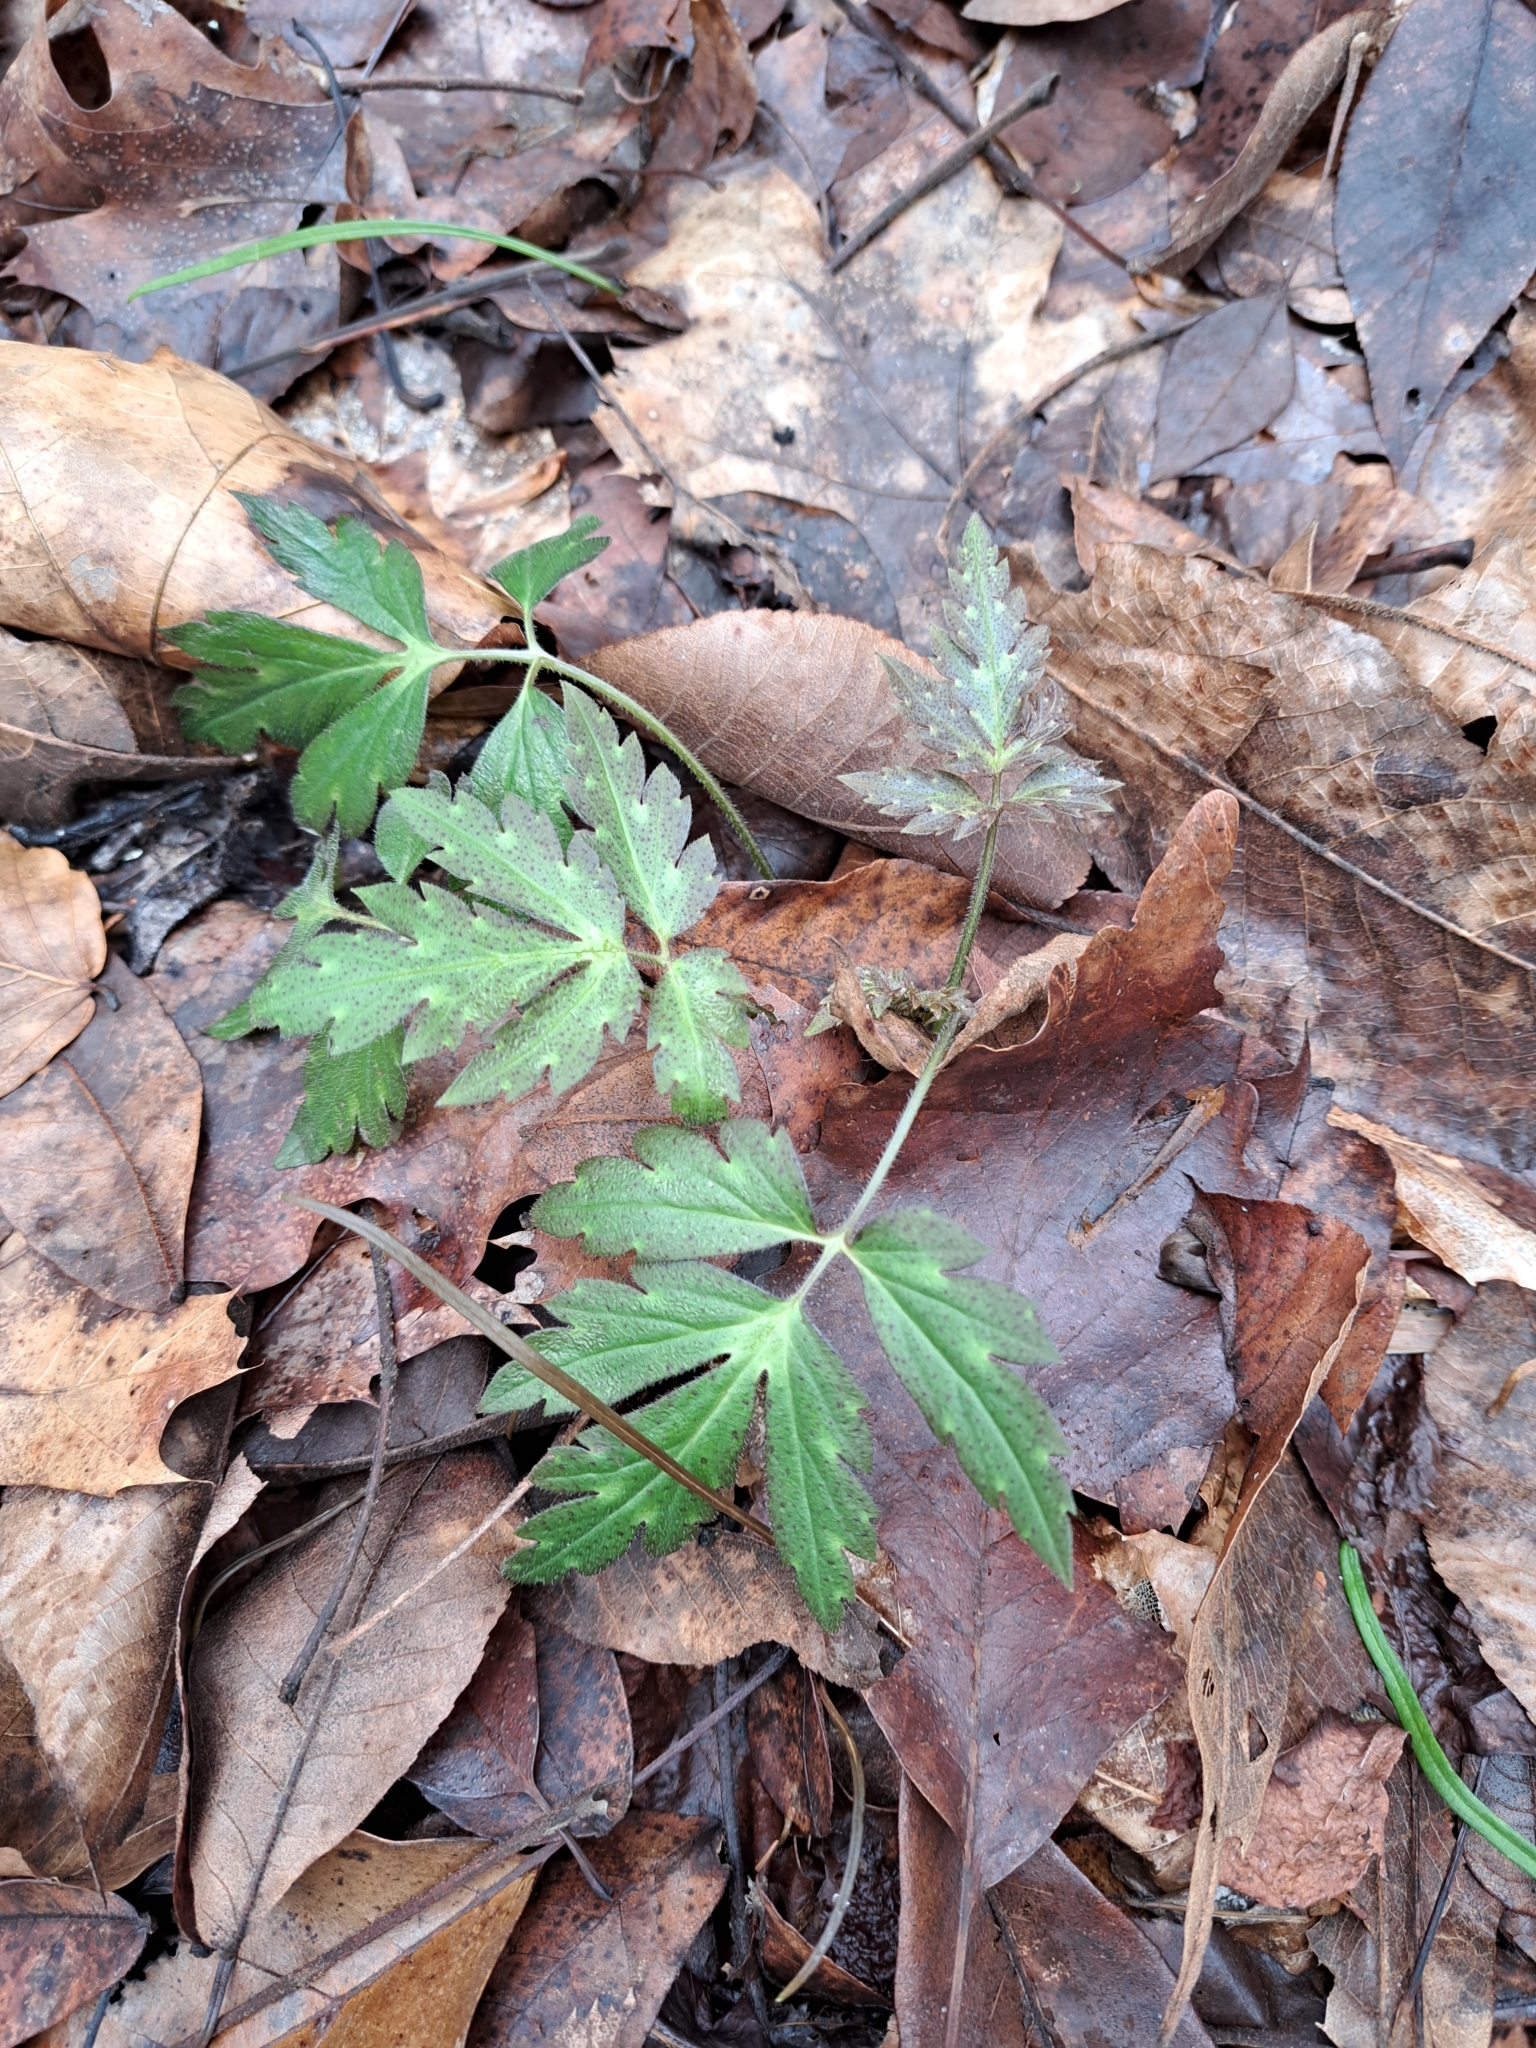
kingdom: Plantae
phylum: Tracheophyta
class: Magnoliopsida
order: Boraginales
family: Hydrophyllaceae
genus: Phacelia
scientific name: Phacelia bipinnatifida
